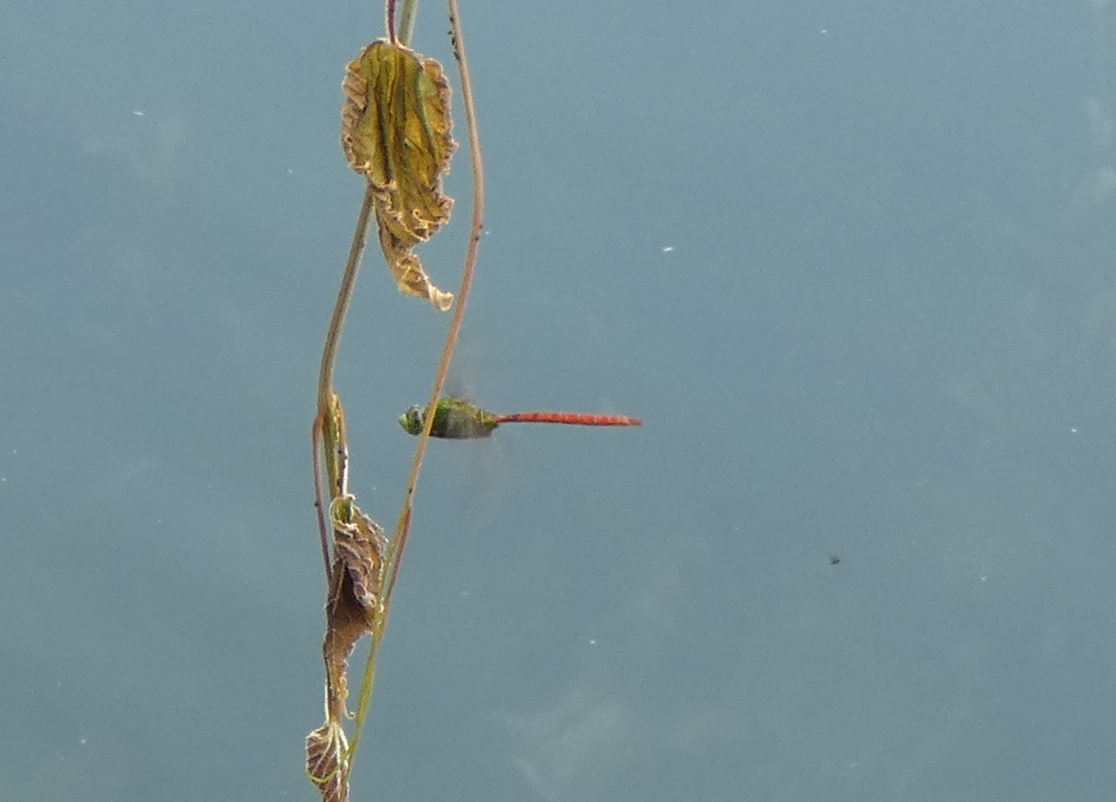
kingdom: Animalia
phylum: Arthropoda
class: Insecta
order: Odonata
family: Aeshnidae
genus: Anax
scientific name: Anax longipes
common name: Comet darner
